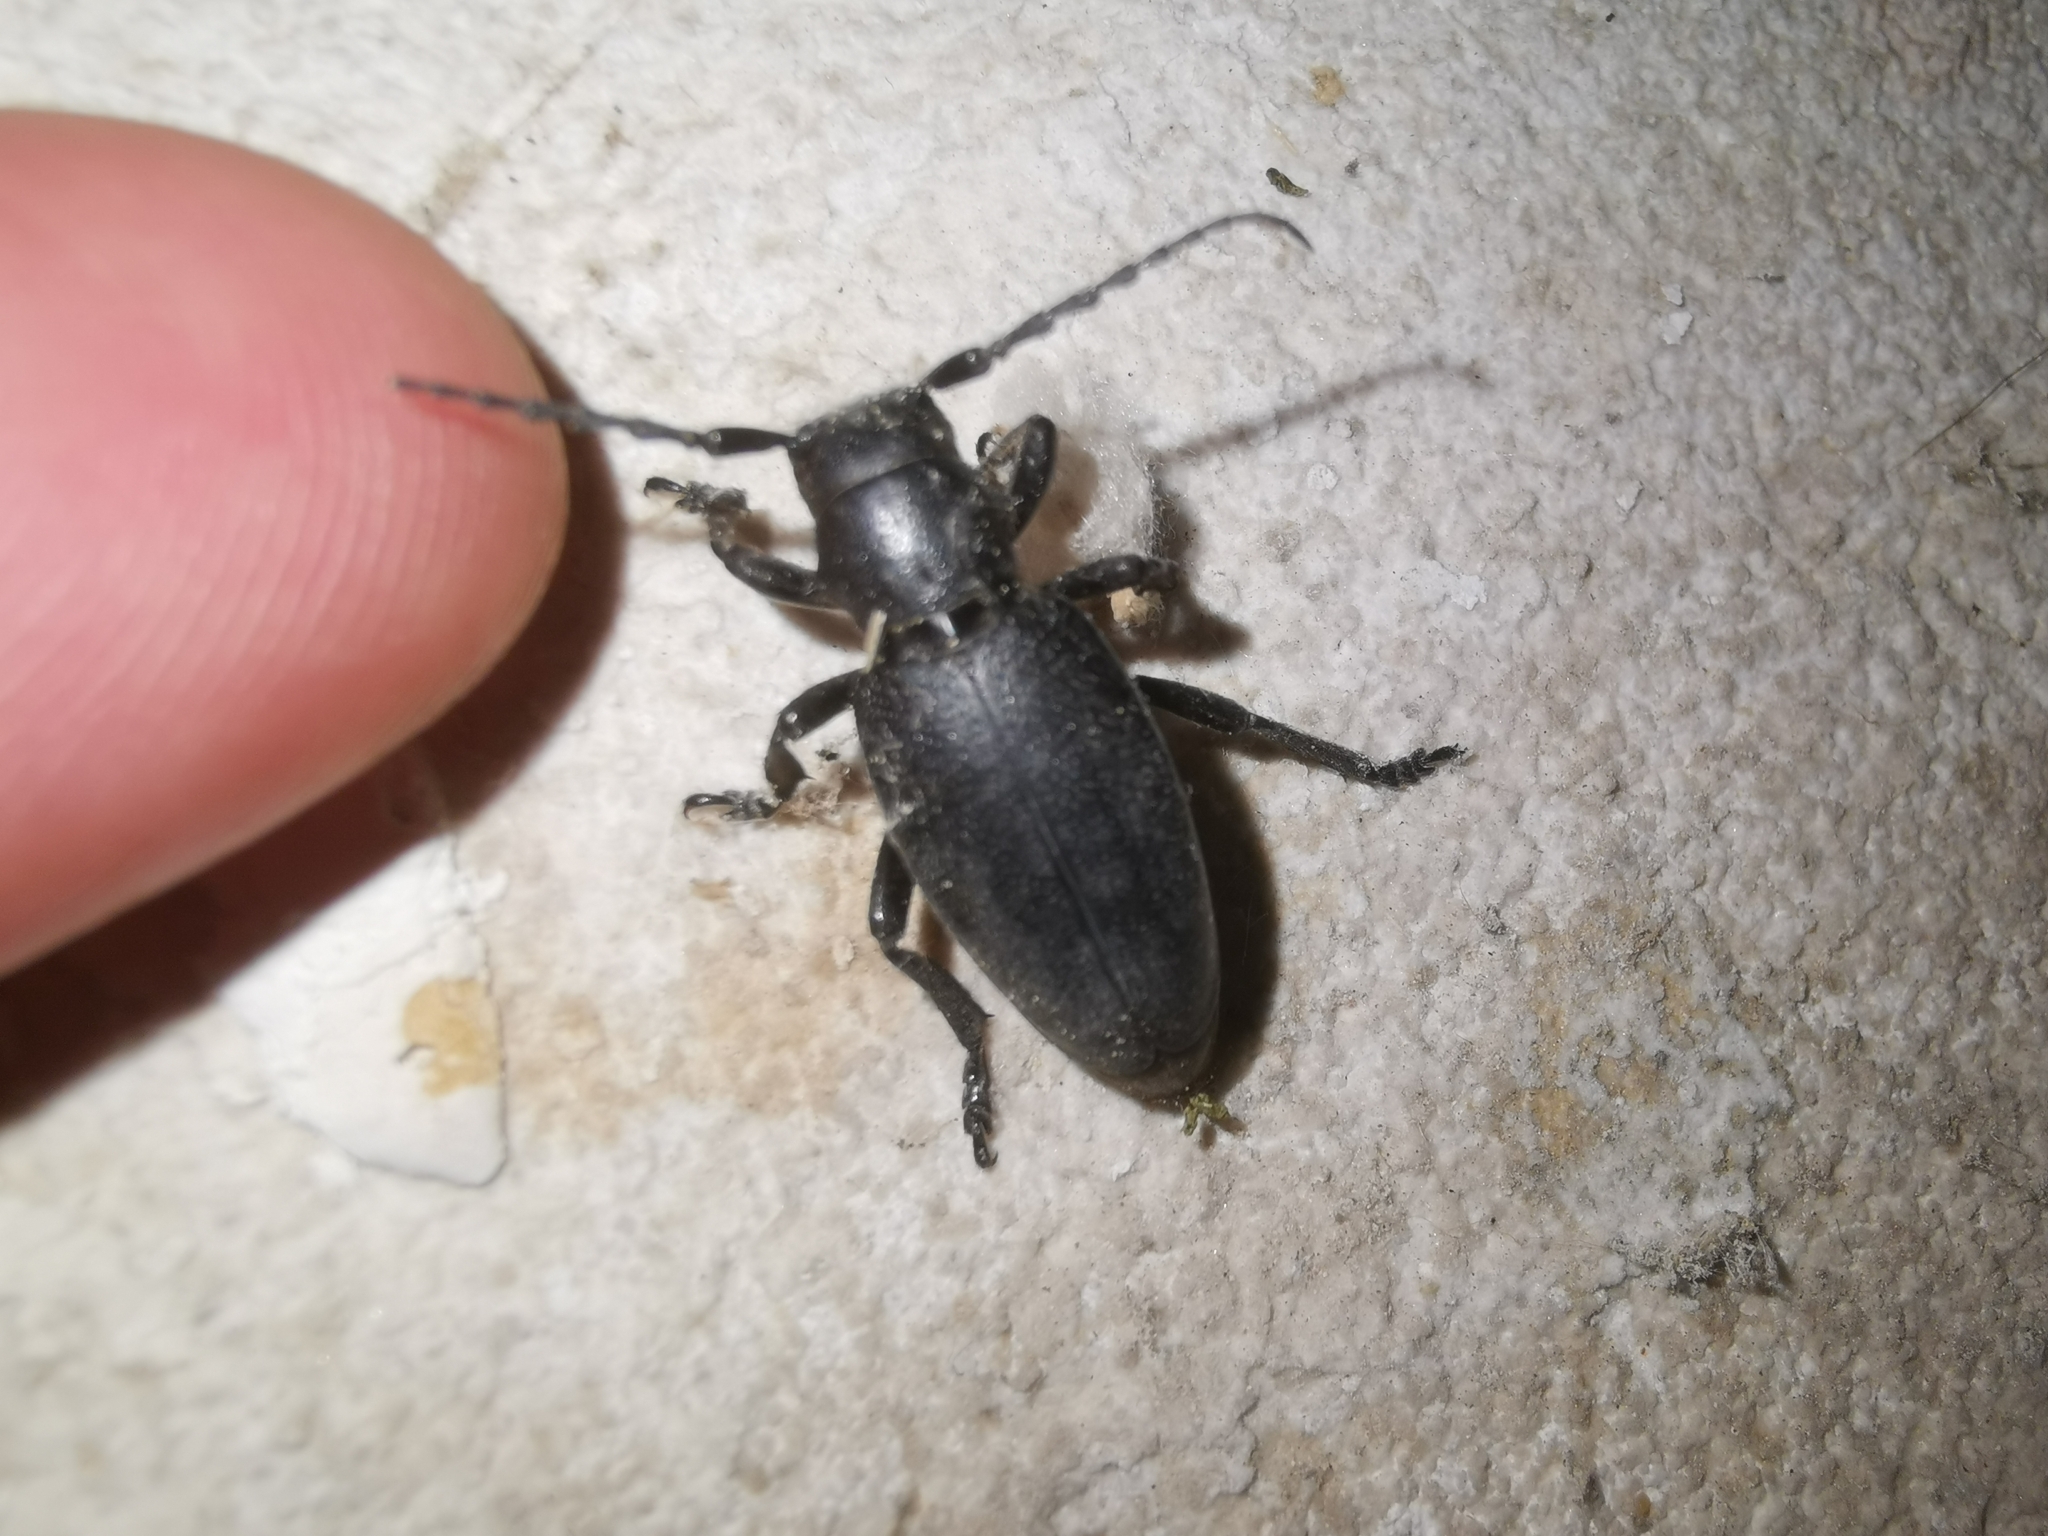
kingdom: Animalia
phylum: Arthropoda
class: Insecta
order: Coleoptera
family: Cerambycidae
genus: Dorcadion
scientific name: Dorcadion aethiops
